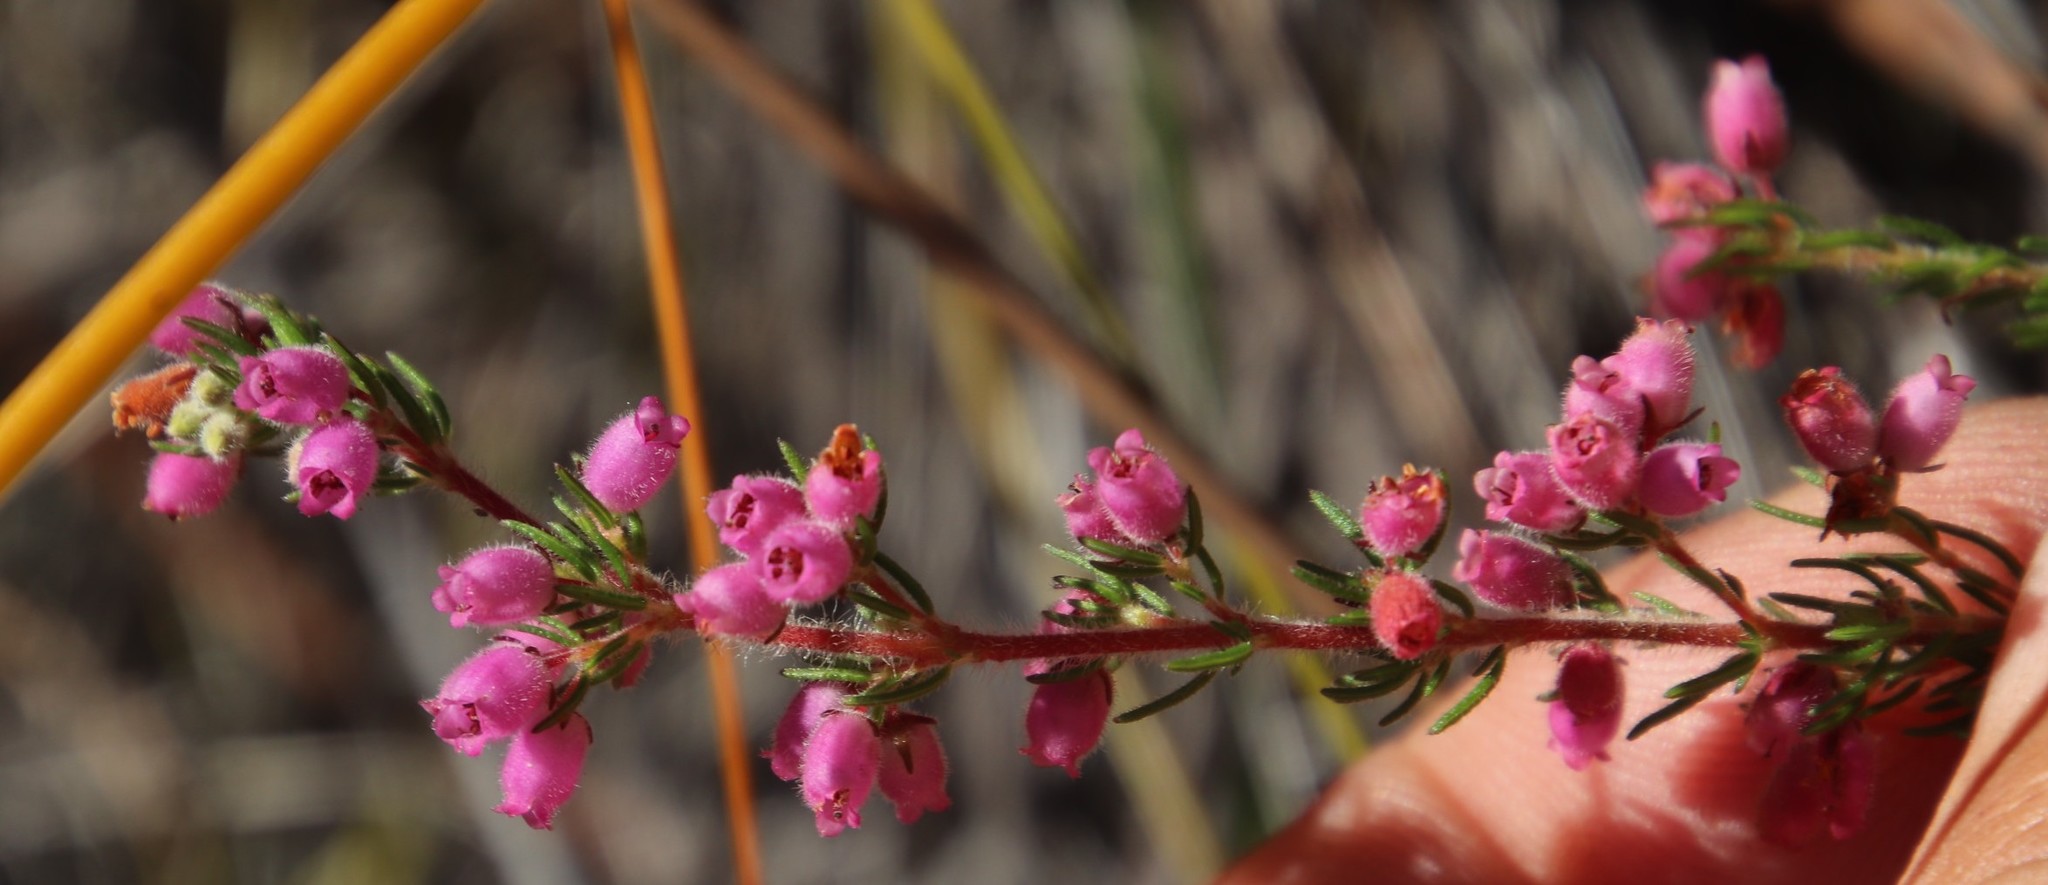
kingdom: Plantae
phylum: Tracheophyta
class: Magnoliopsida
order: Ericales
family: Ericaceae
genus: Erica
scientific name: Erica parviflora
